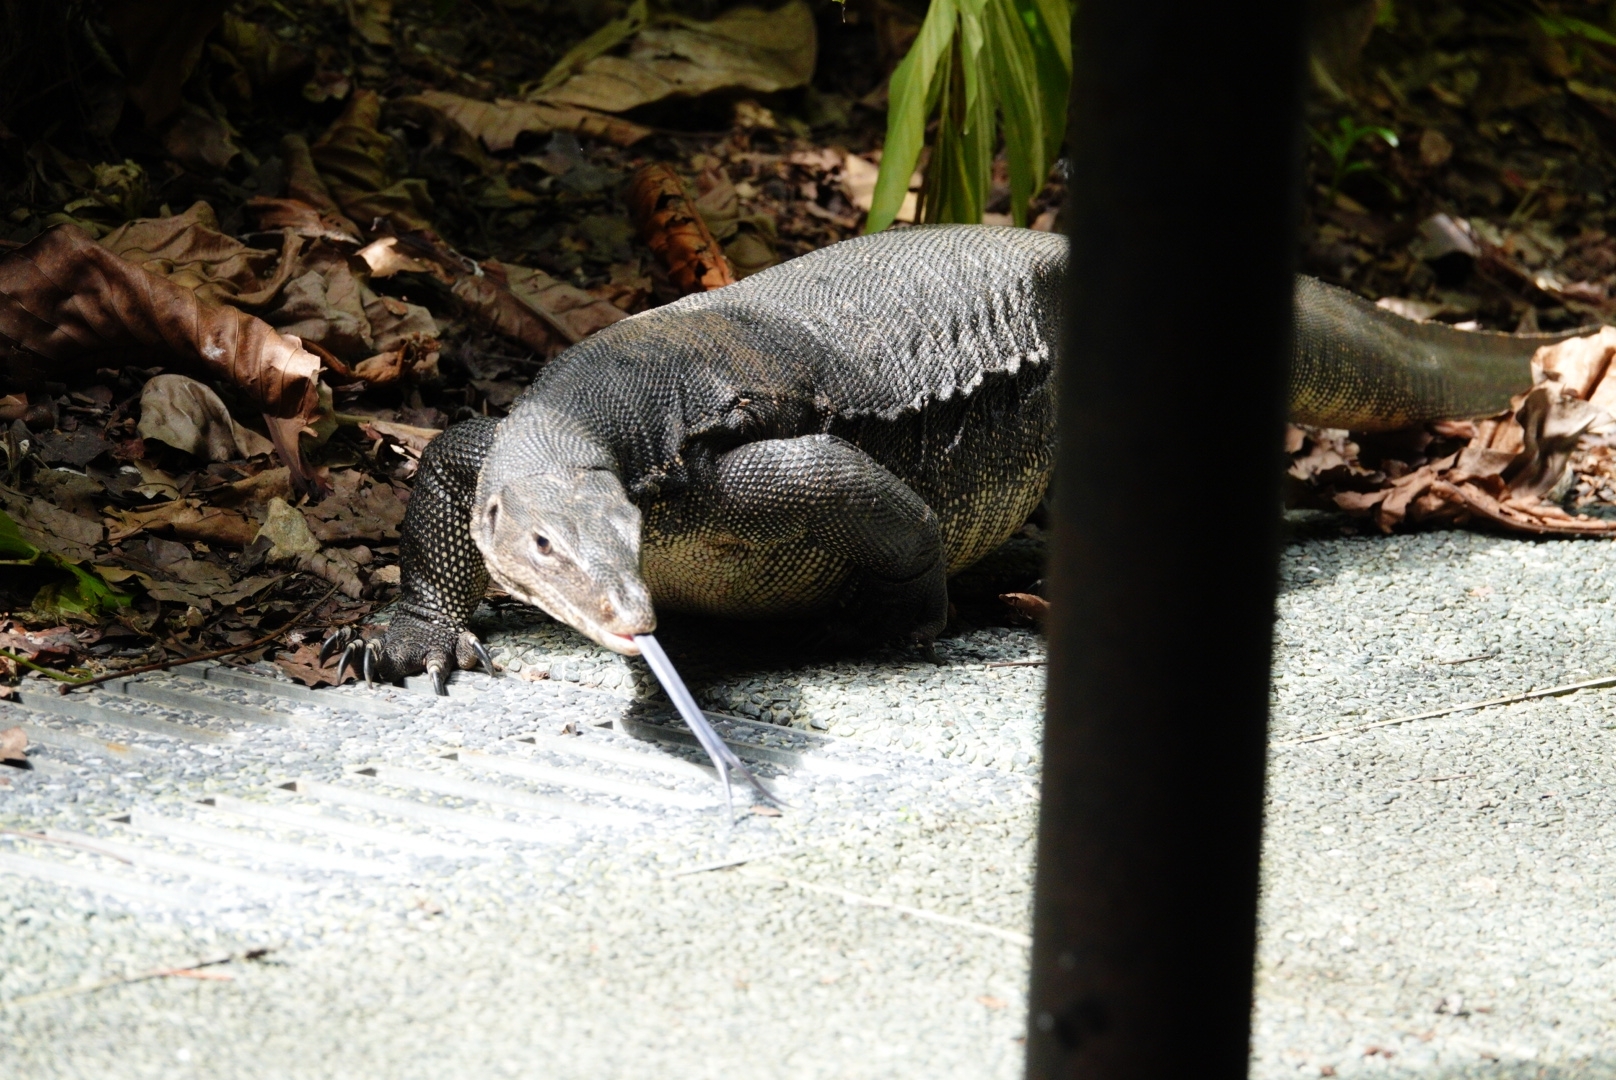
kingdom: Animalia
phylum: Chordata
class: Squamata
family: Varanidae
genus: Varanus
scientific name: Varanus salvator
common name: Common water monitor
